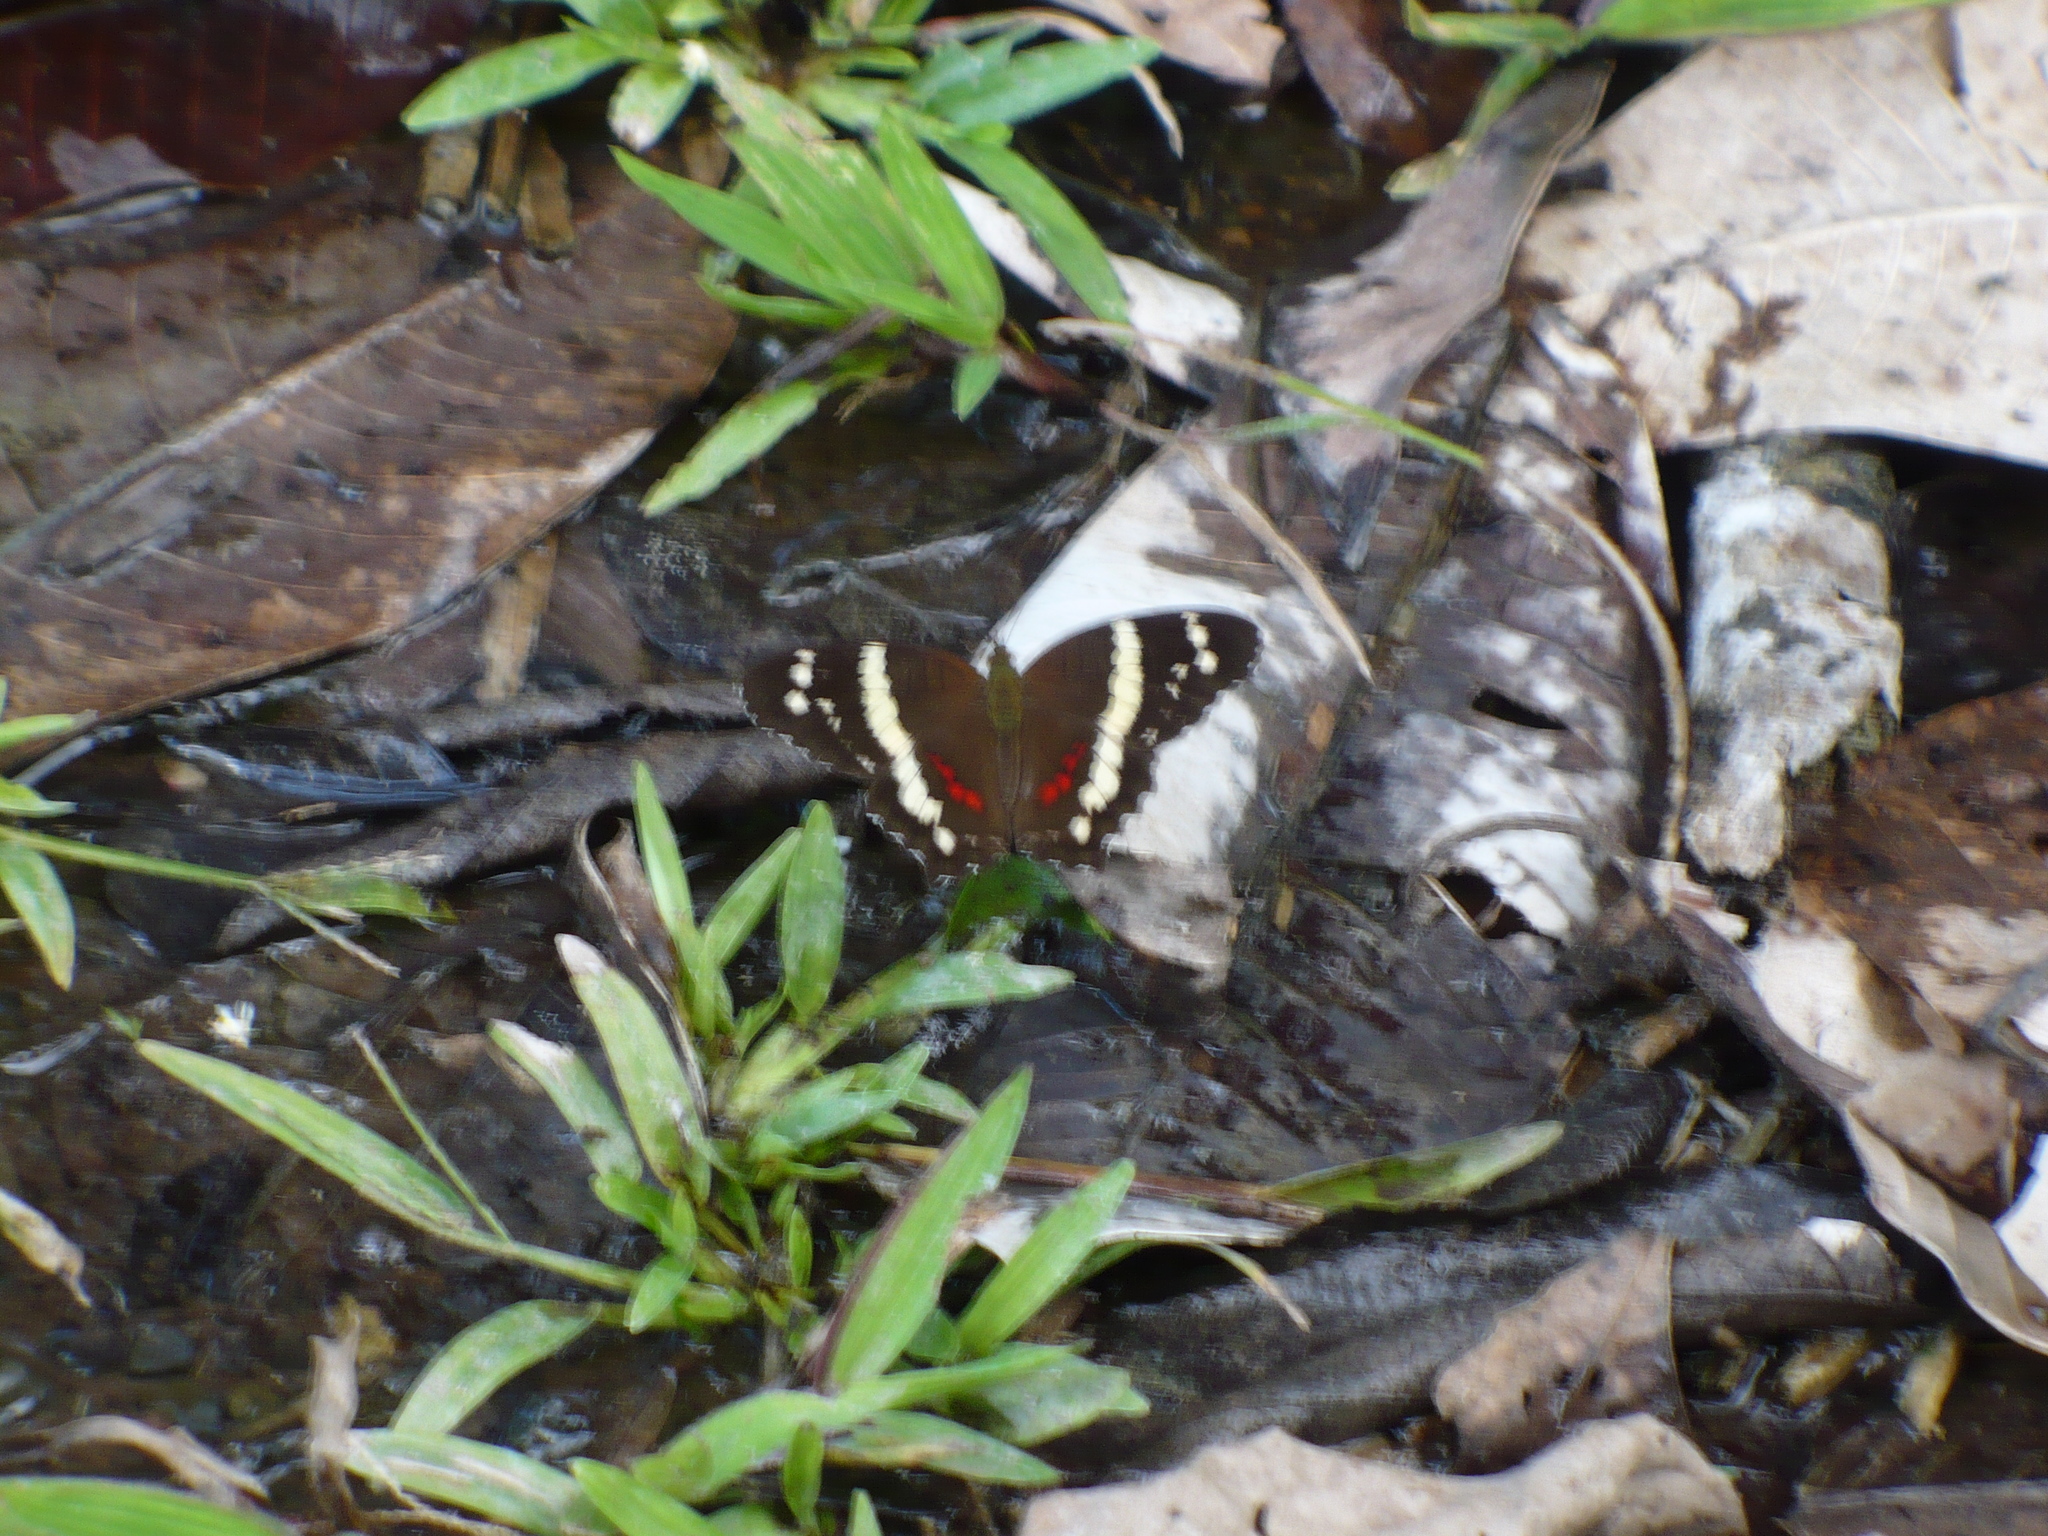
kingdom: Animalia
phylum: Arthropoda
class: Insecta
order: Lepidoptera
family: Nymphalidae
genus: Anartia
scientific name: Anartia fatima
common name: Banded peacock
